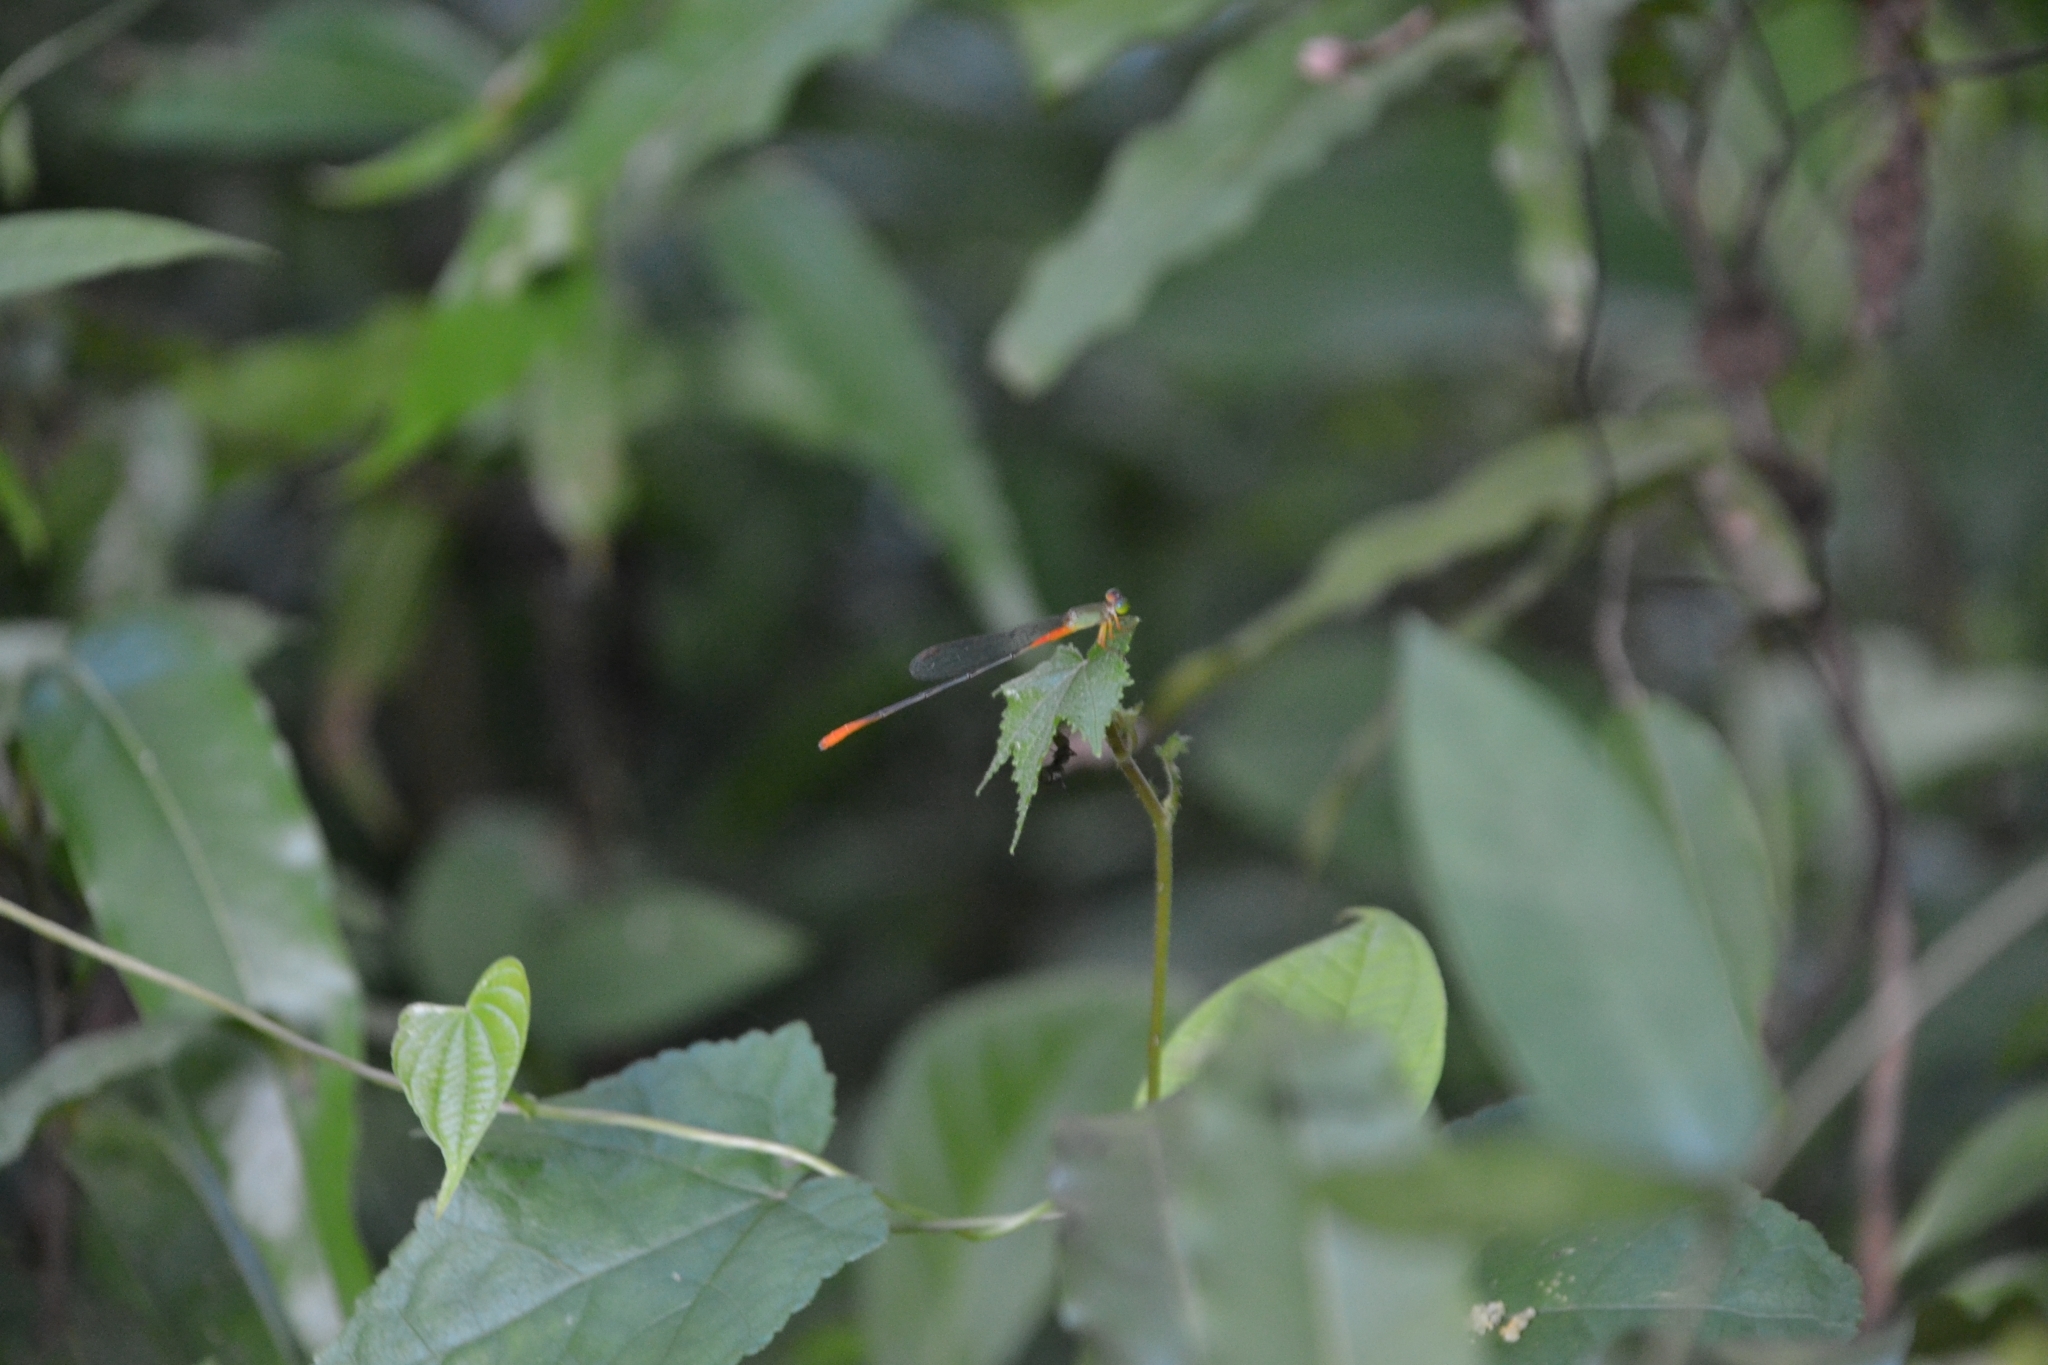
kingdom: Animalia
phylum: Arthropoda
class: Insecta
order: Odonata
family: Coenagrionidae
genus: Ceriagrion
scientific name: Ceriagrion cerinorubellum
